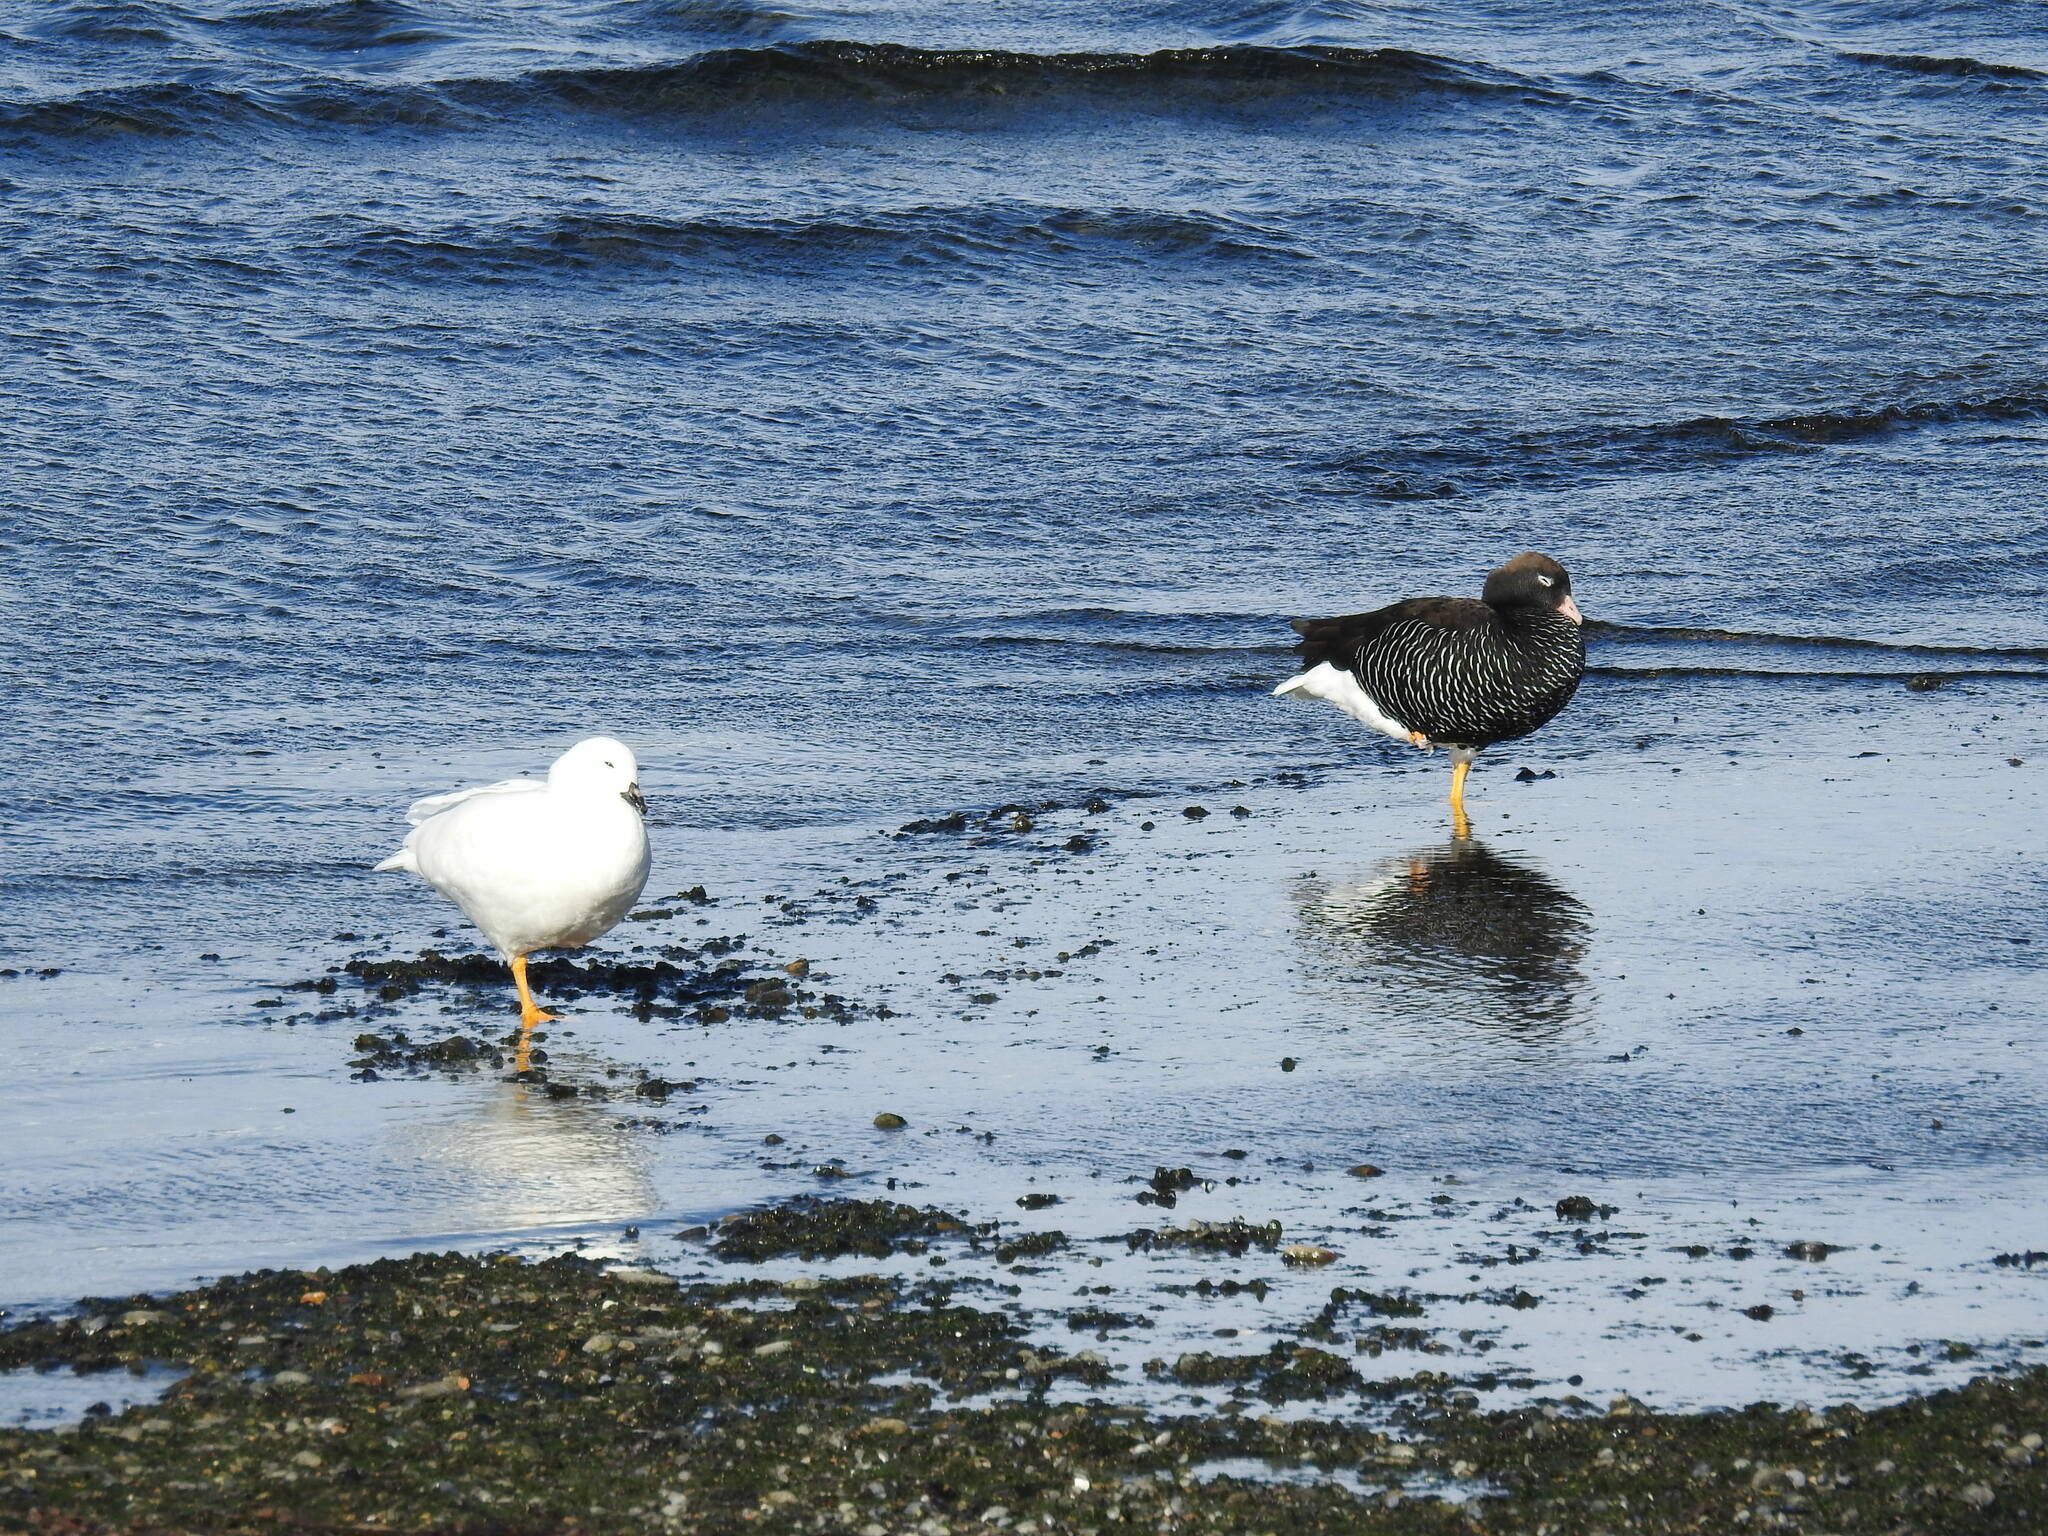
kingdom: Animalia
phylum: Chordata
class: Aves
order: Anseriformes
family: Anatidae
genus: Chloephaga
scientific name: Chloephaga hybrida
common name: Kelp goose
